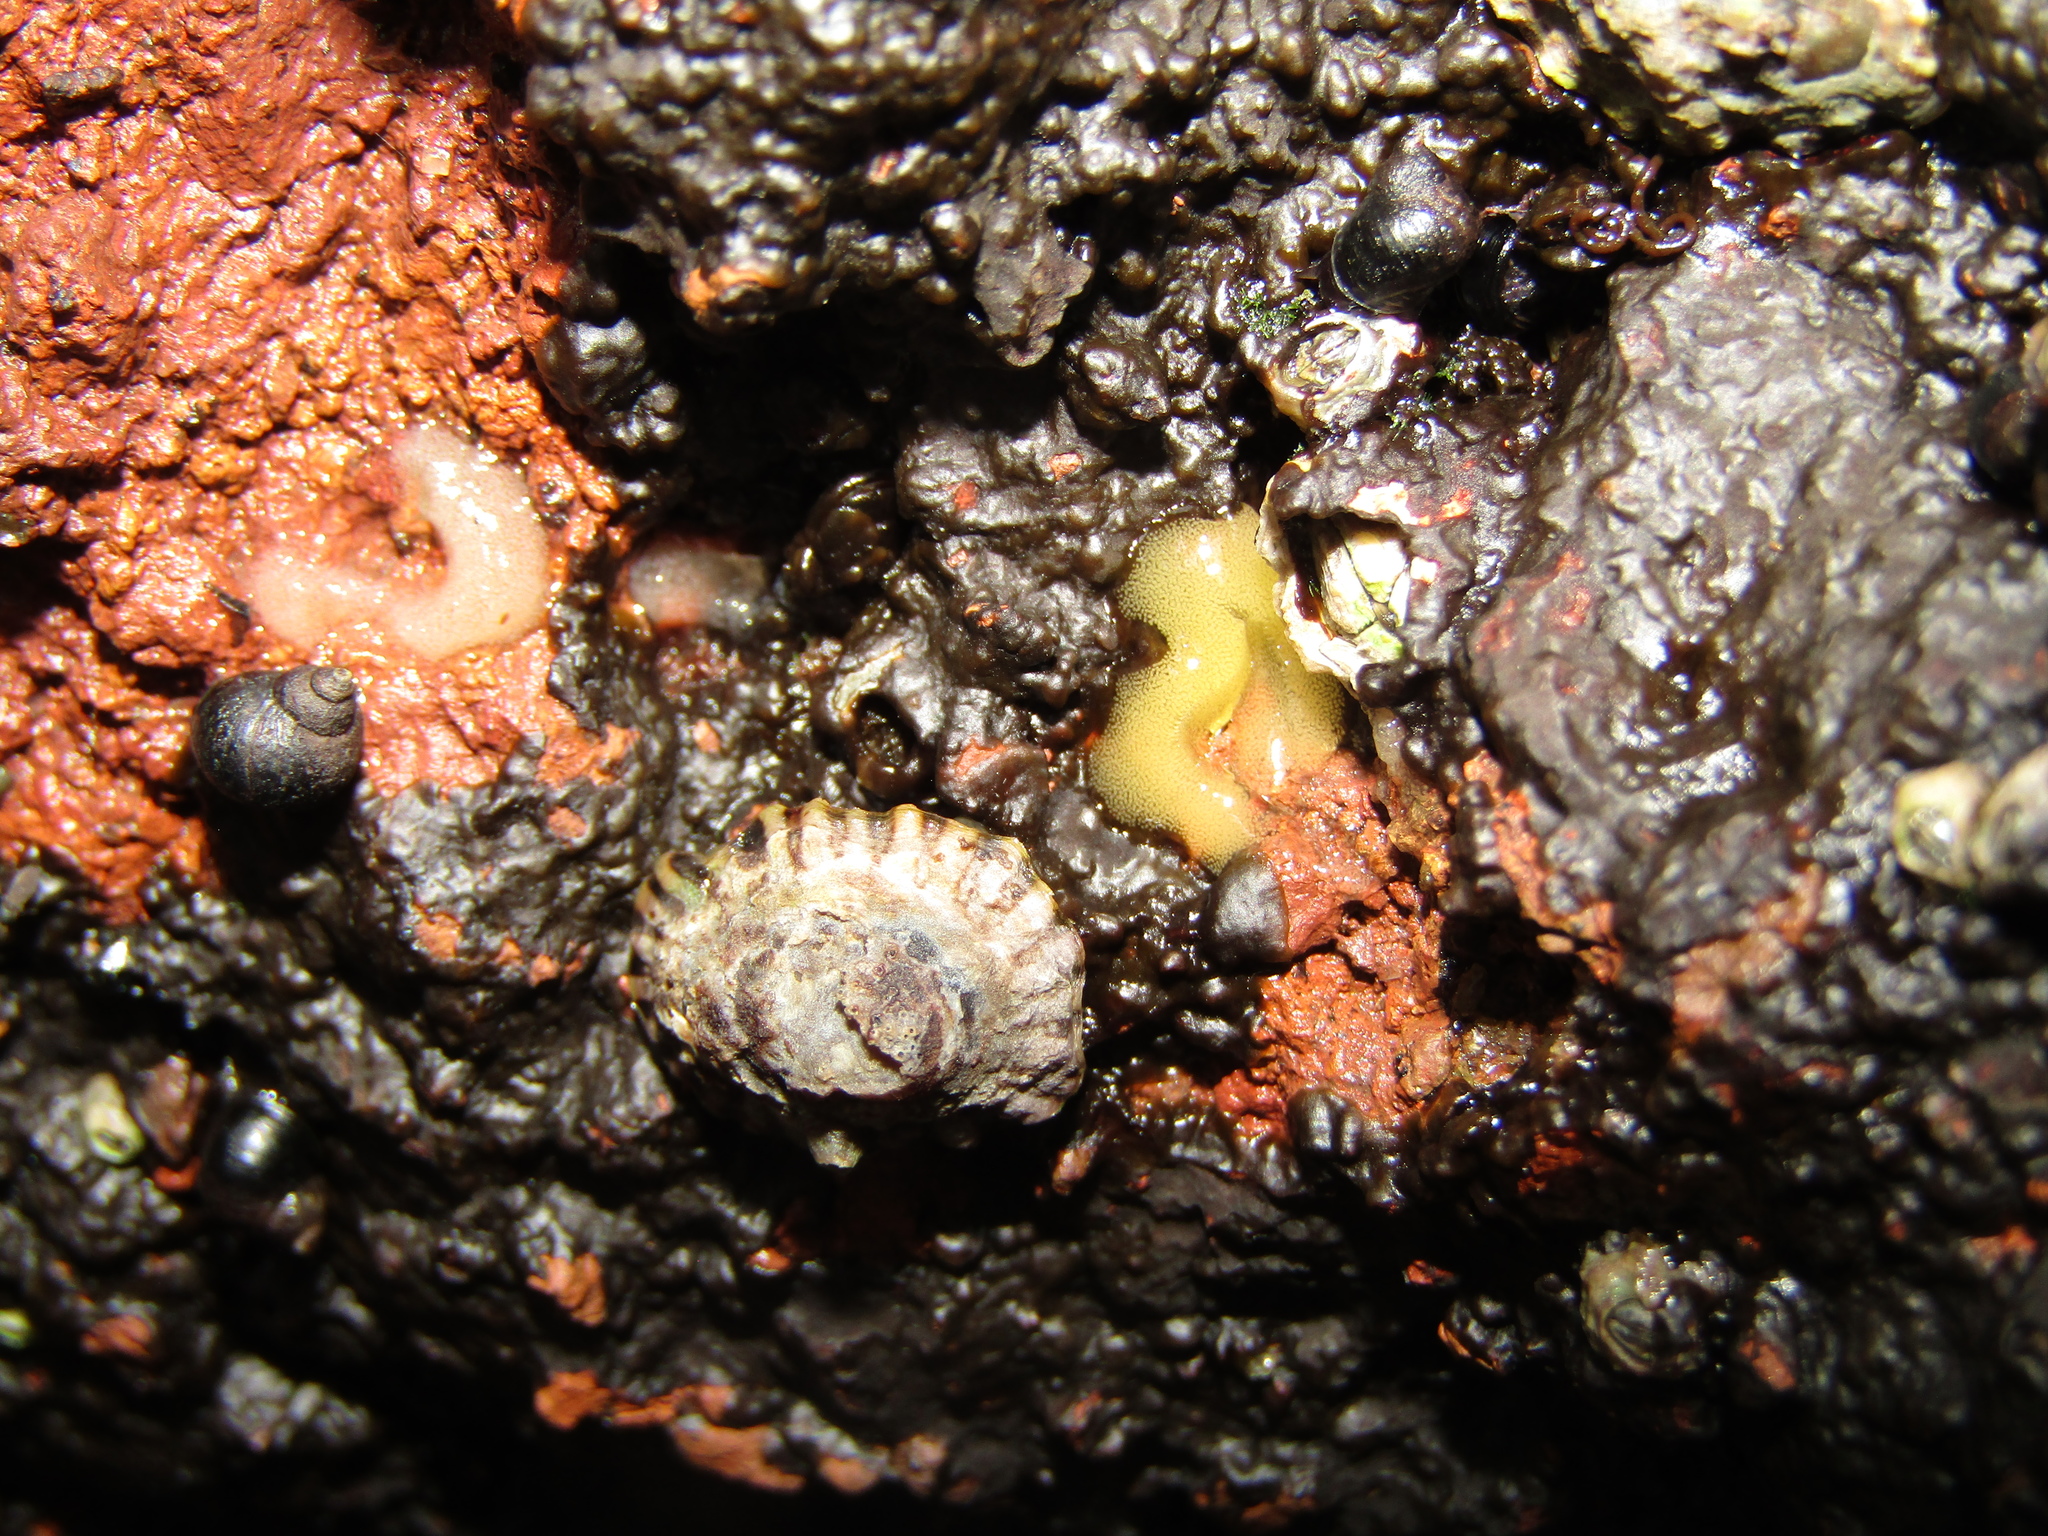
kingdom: Animalia
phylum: Mollusca
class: Gastropoda
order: Siphonariida
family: Siphonariidae
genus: Siphonaria
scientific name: Siphonaria australis
